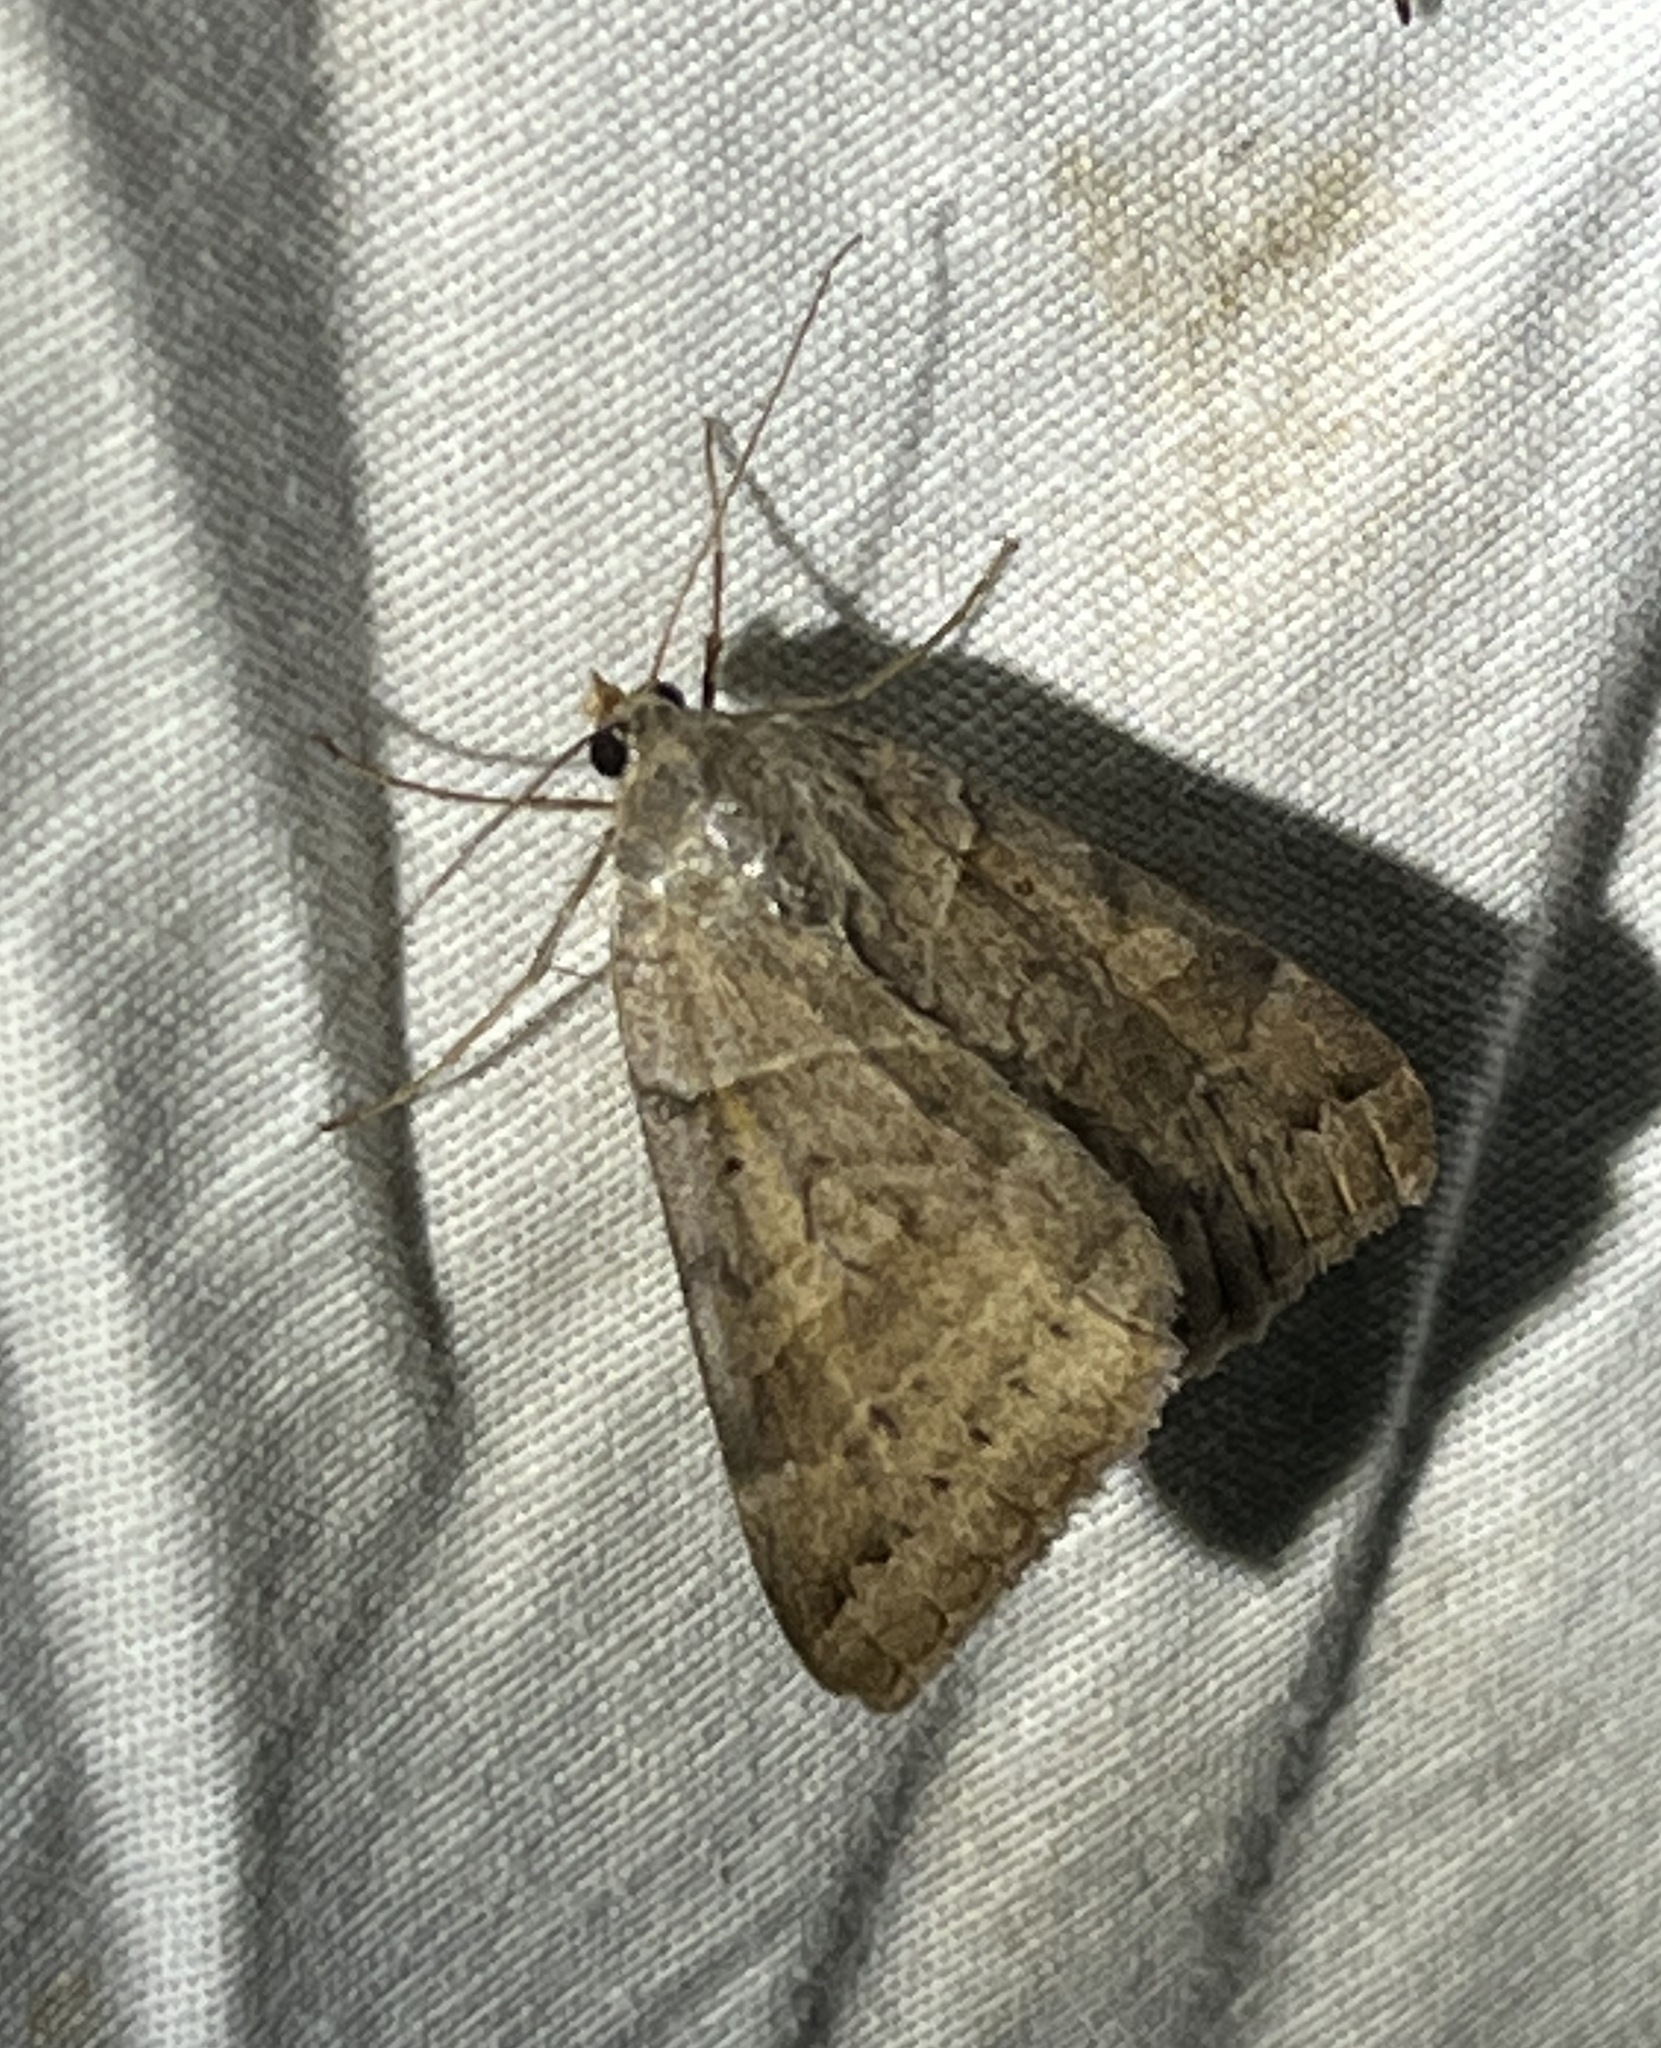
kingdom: Animalia
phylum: Arthropoda
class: Insecta
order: Lepidoptera
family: Erebidae
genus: Caenurgina
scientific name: Caenurgina erechtea
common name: Forage looper moth
